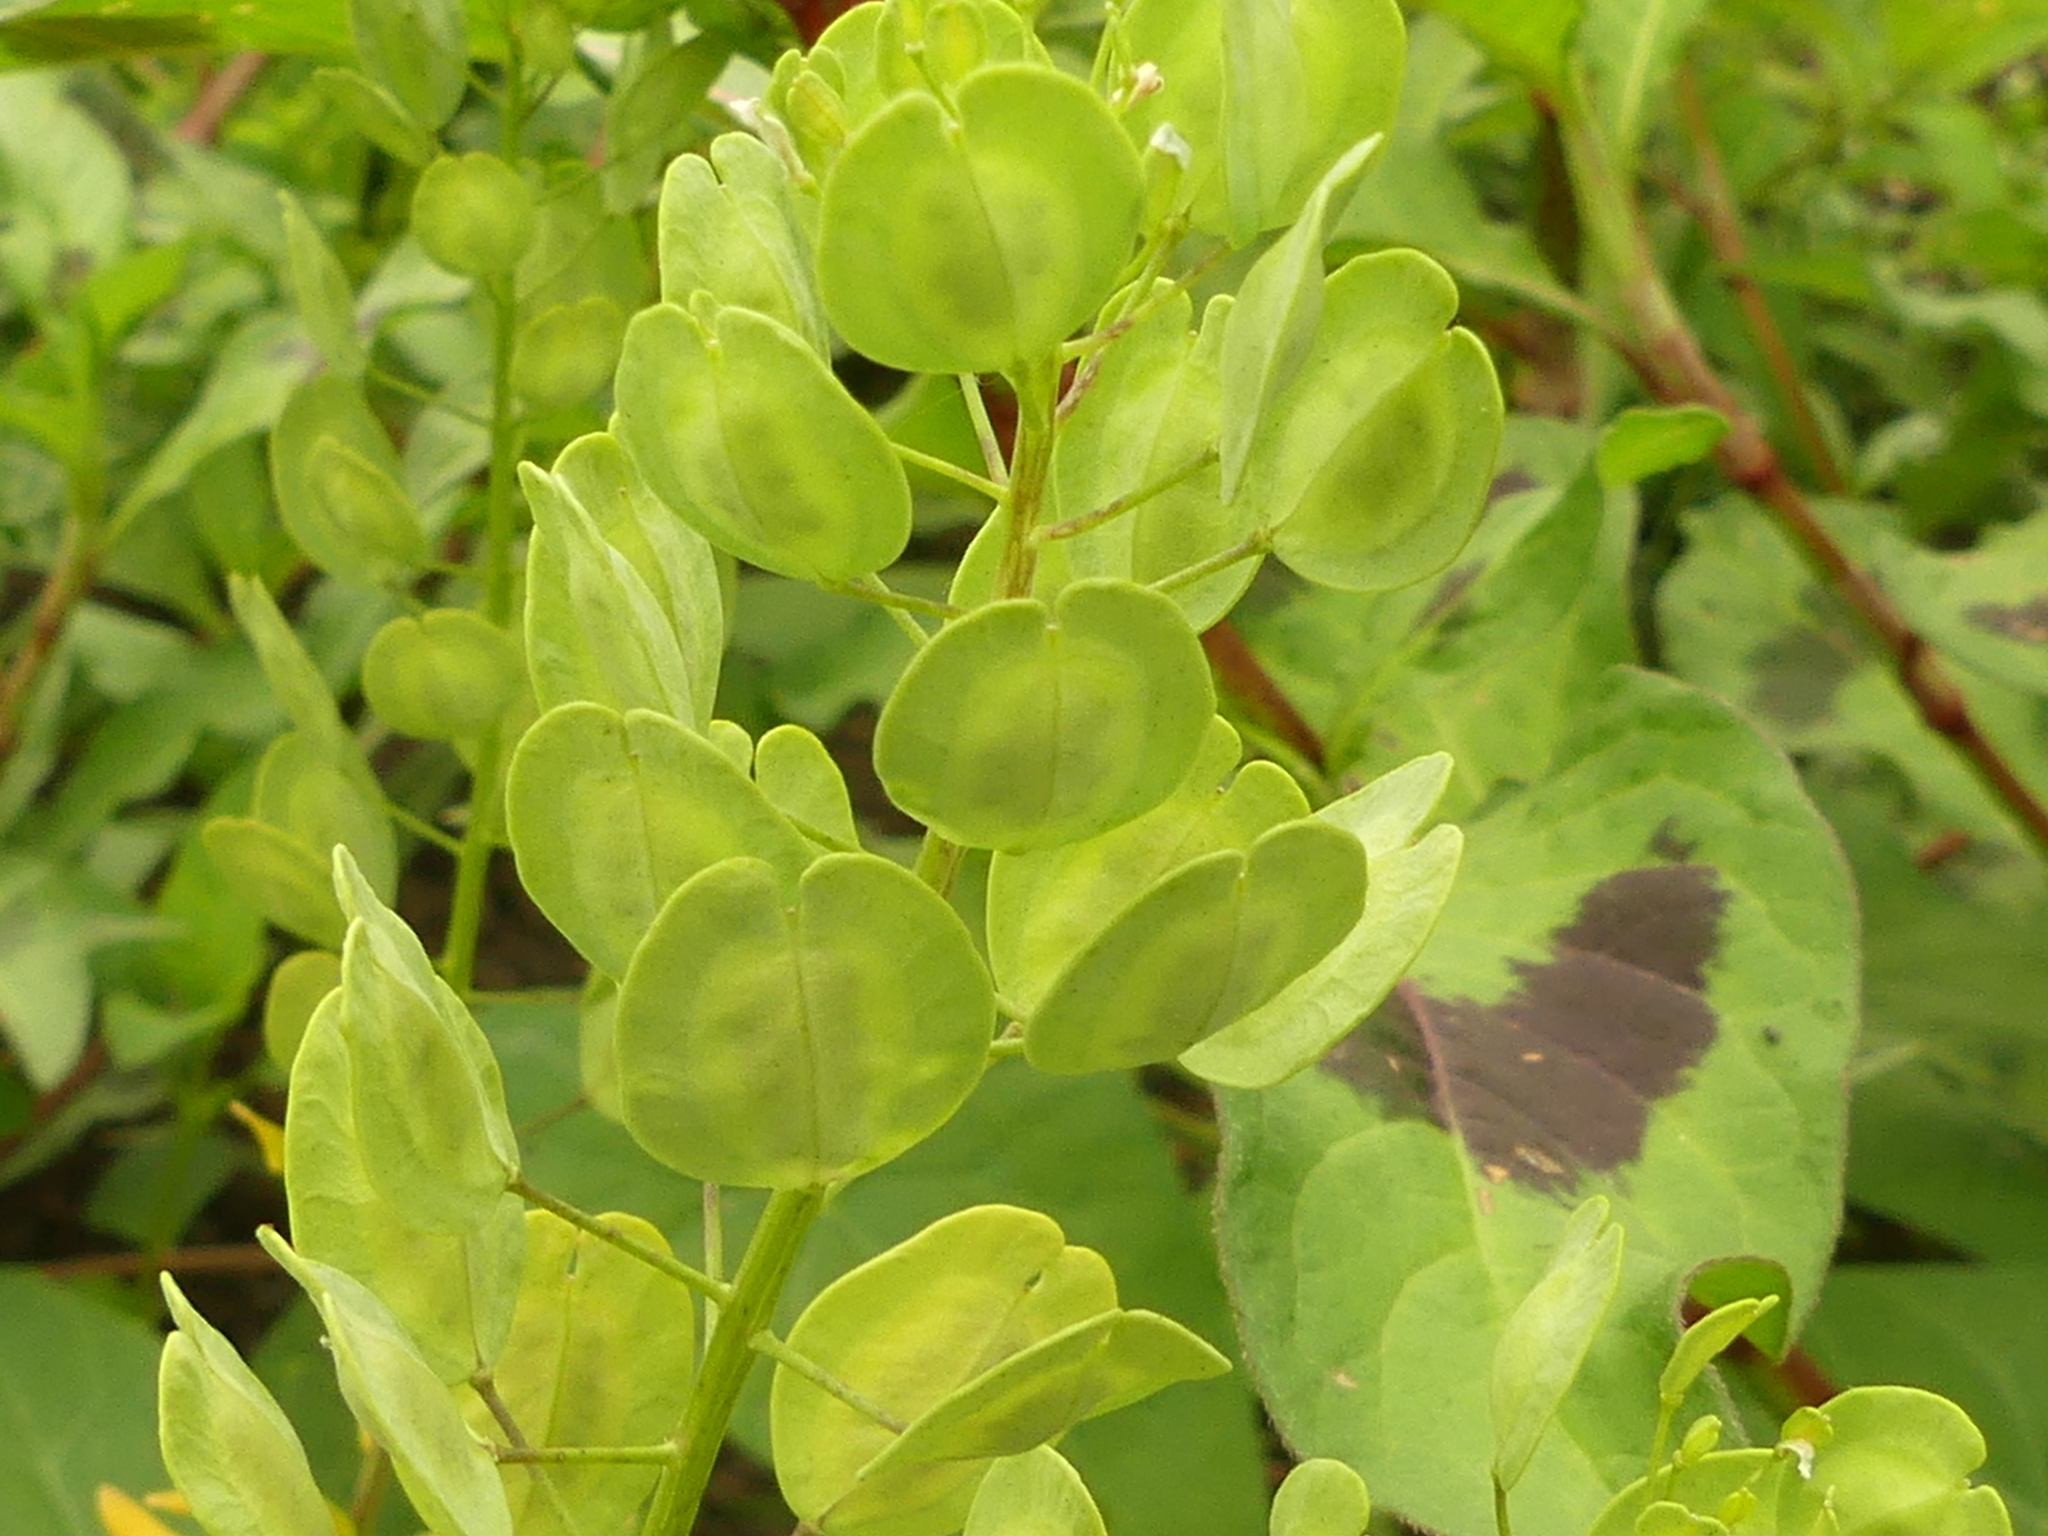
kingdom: Plantae
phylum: Tracheophyta
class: Magnoliopsida
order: Brassicales
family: Brassicaceae
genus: Thlaspi
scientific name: Thlaspi arvense
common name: Field pennycress
